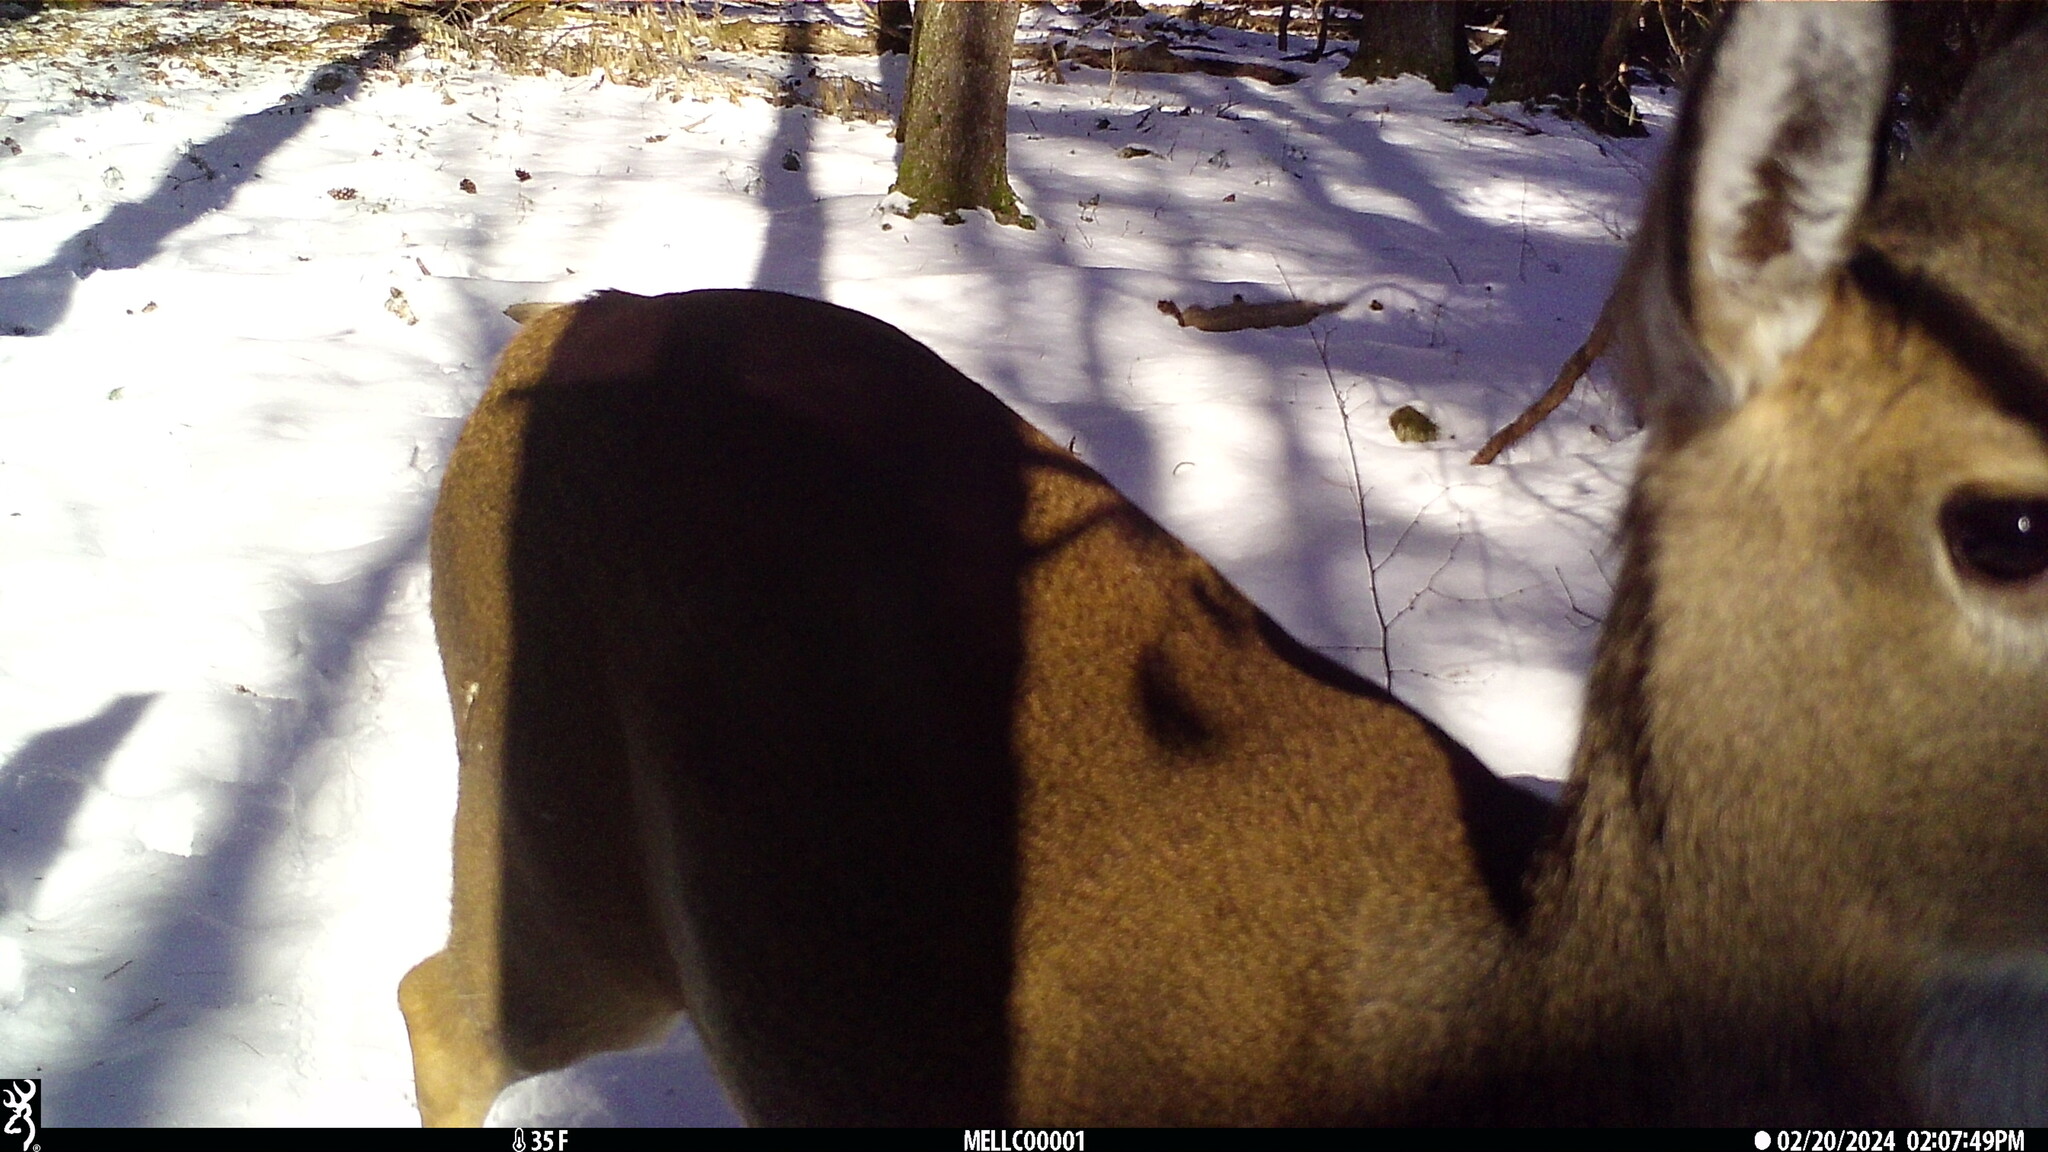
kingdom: Animalia
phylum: Chordata
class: Mammalia
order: Artiodactyla
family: Cervidae
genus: Odocoileus
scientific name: Odocoileus virginianus
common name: White-tailed deer
